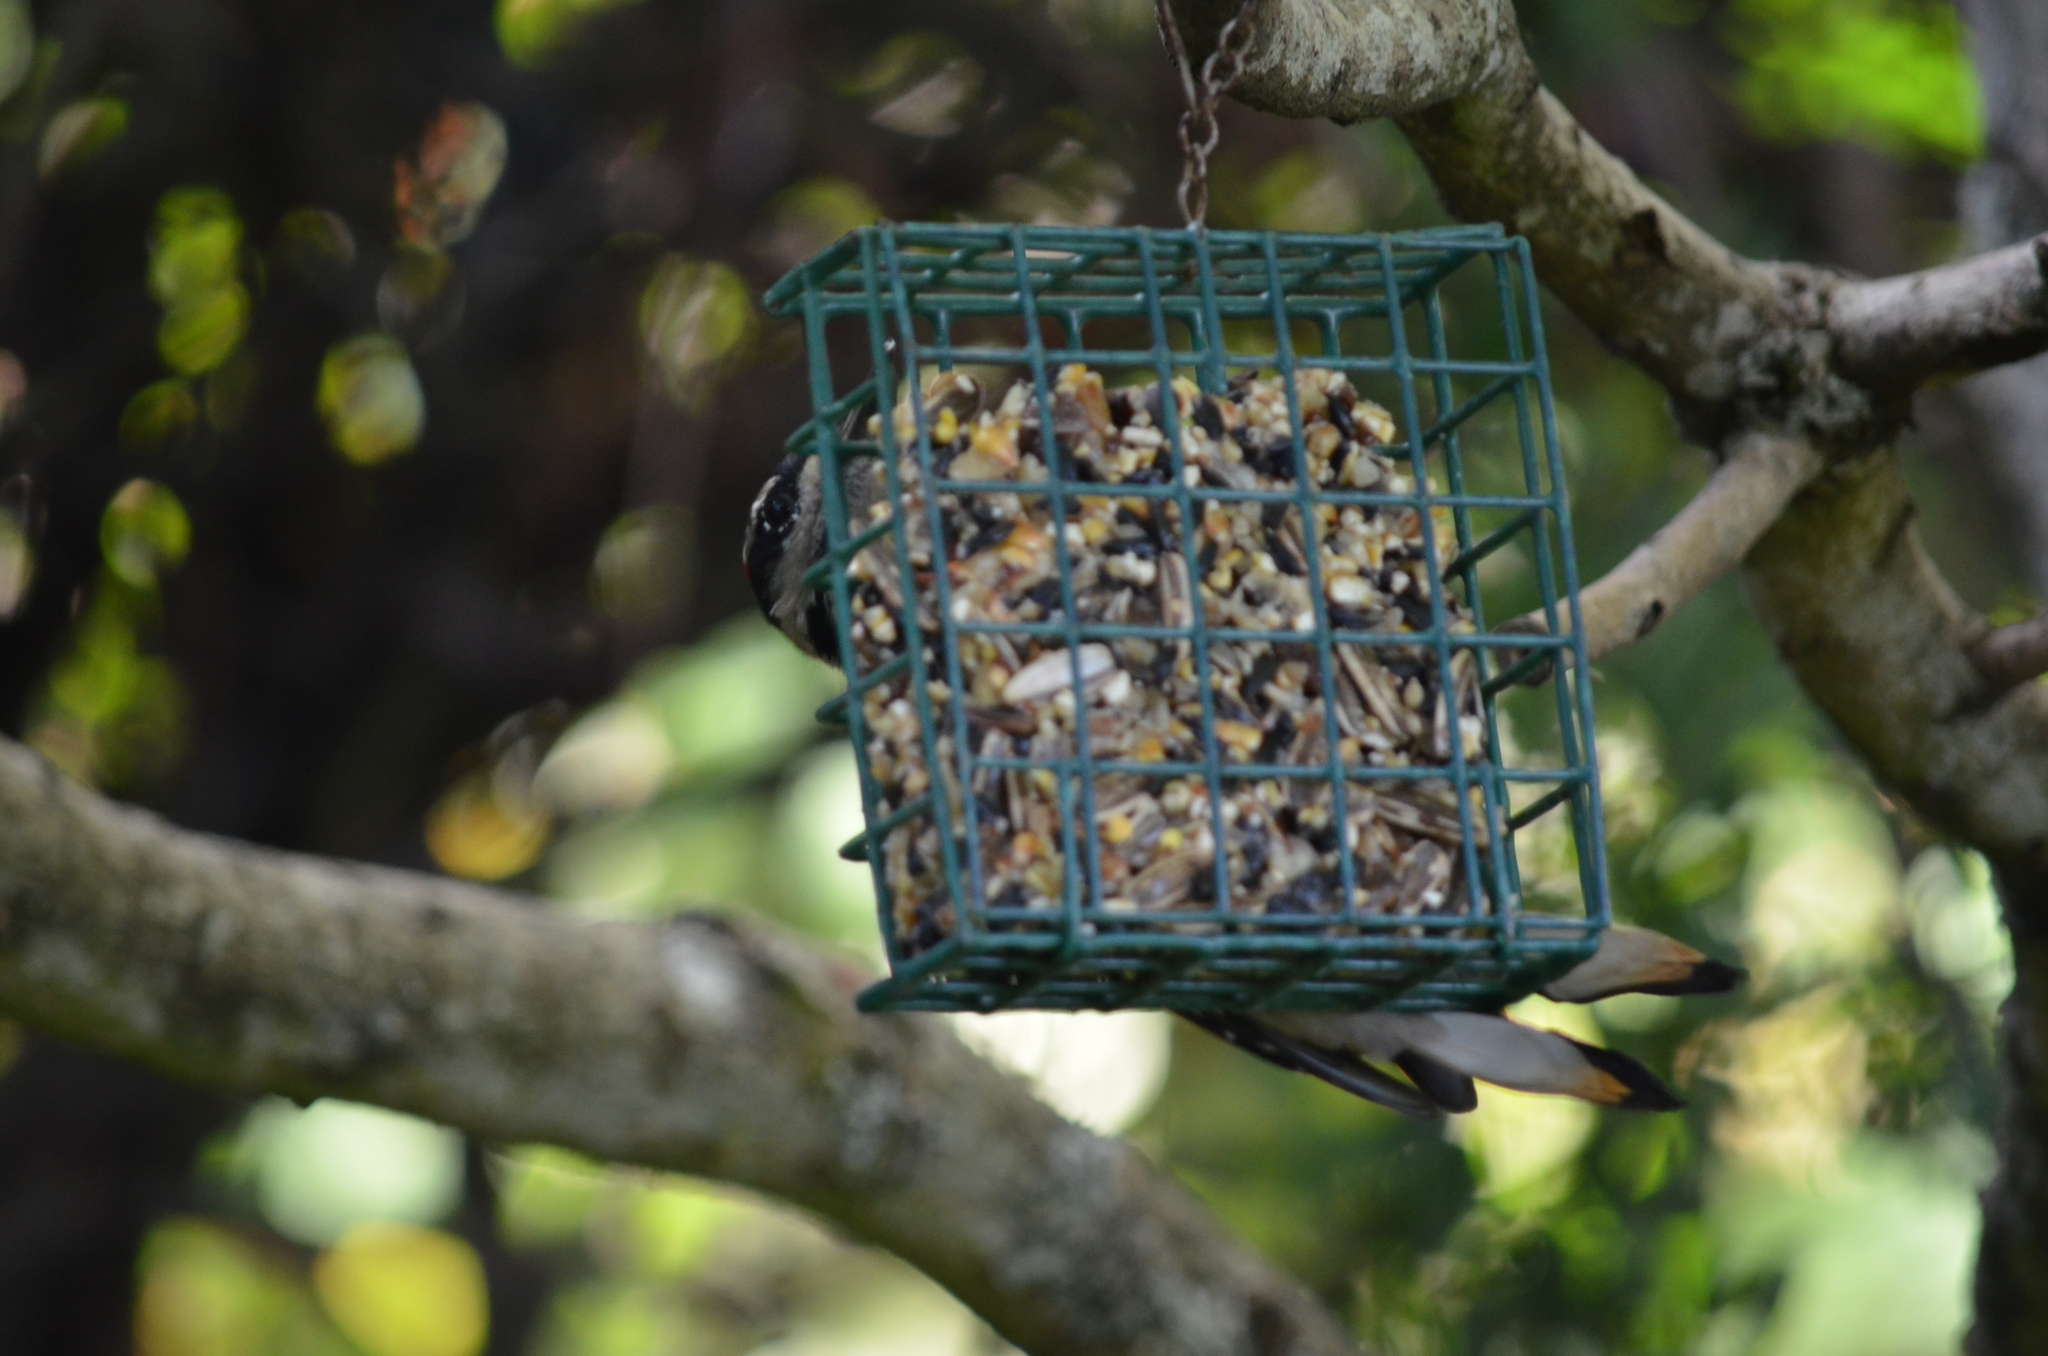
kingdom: Animalia
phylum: Chordata
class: Aves
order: Piciformes
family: Picidae
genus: Leuconotopicus
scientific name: Leuconotopicus villosus
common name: Hairy woodpecker
